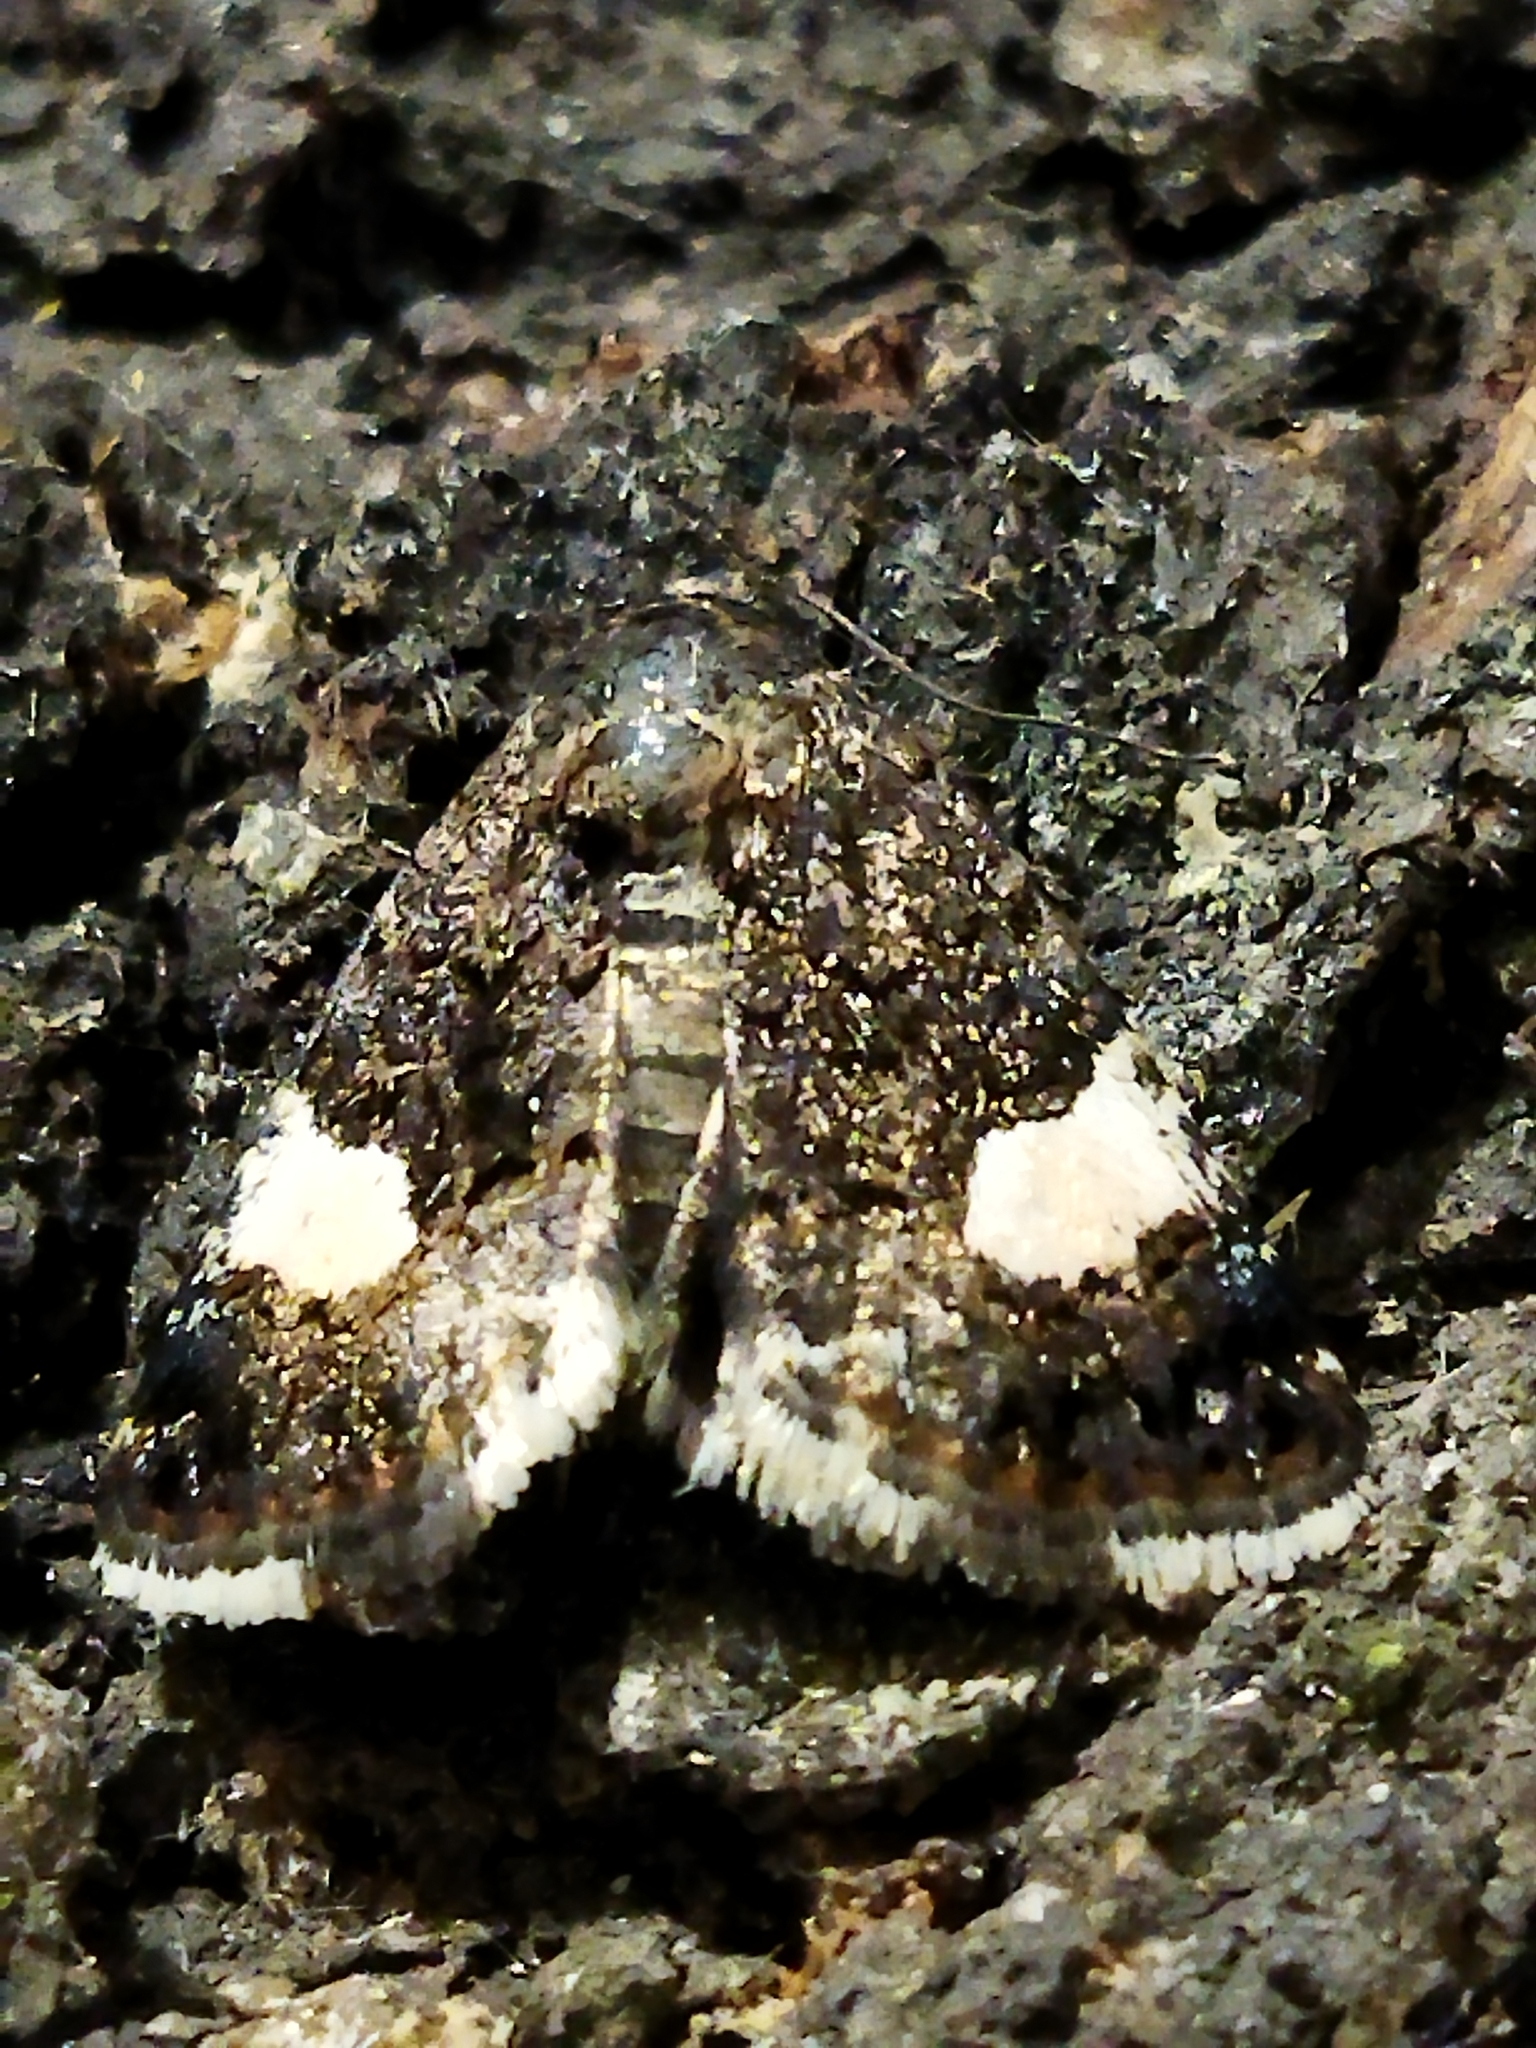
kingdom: Animalia
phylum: Arthropoda
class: Insecta
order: Lepidoptera
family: Erebidae
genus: Tyta
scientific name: Tyta luctuosa
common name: Four-spotted
